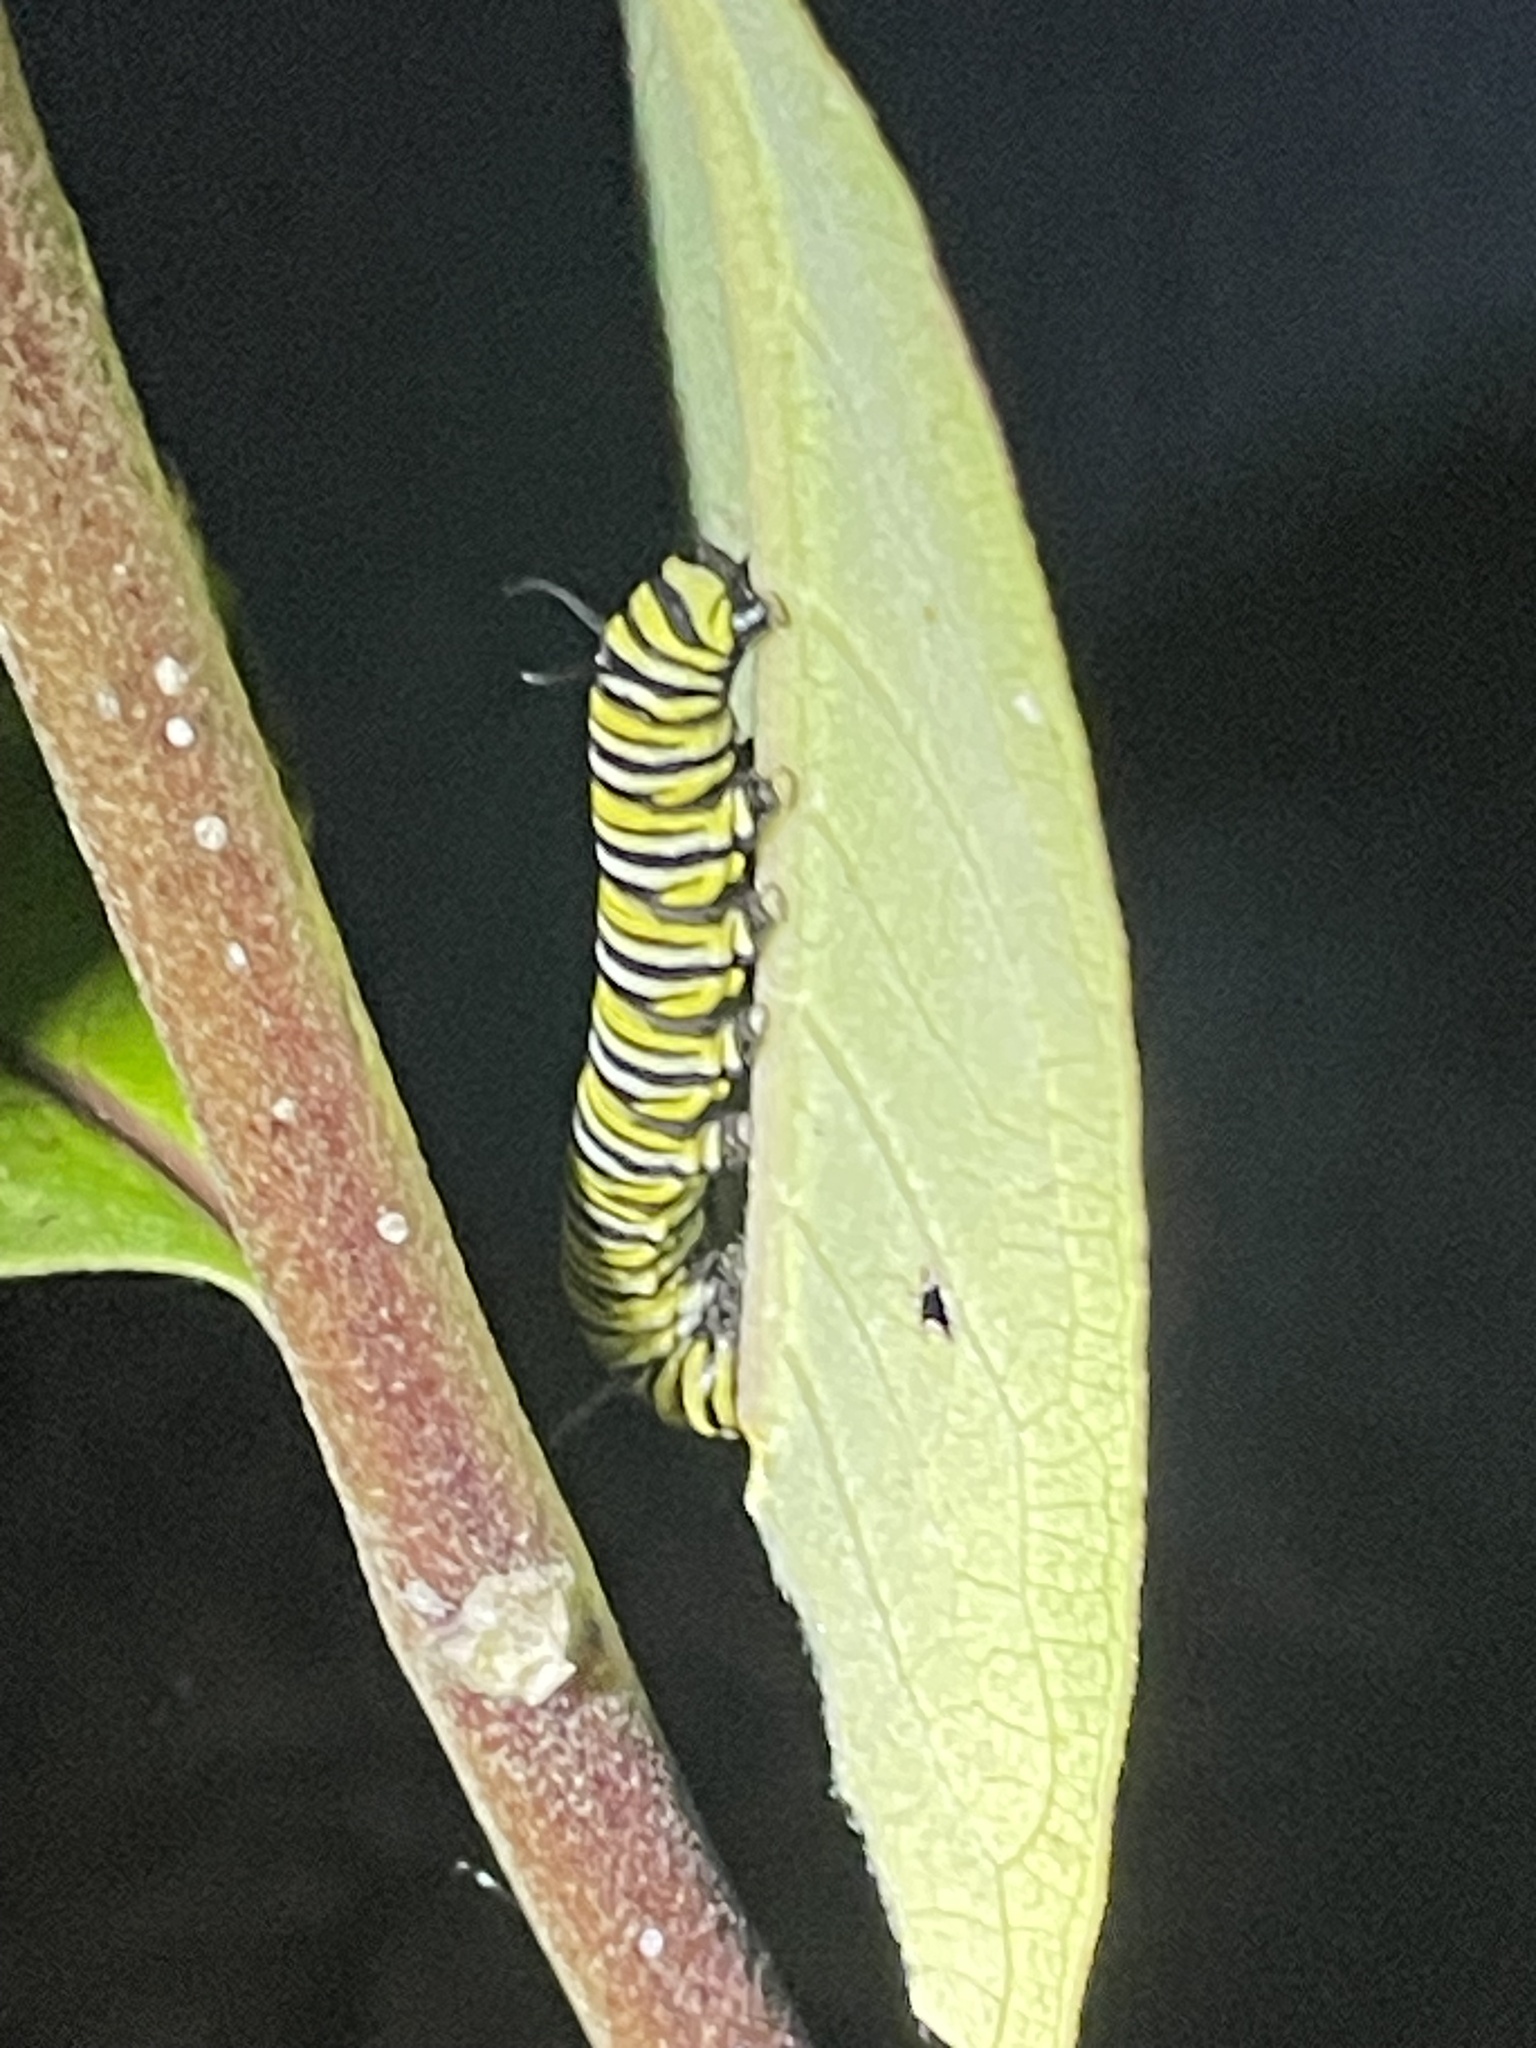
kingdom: Animalia
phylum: Arthropoda
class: Insecta
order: Lepidoptera
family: Nymphalidae
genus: Danaus
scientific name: Danaus plexippus
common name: Monarch
